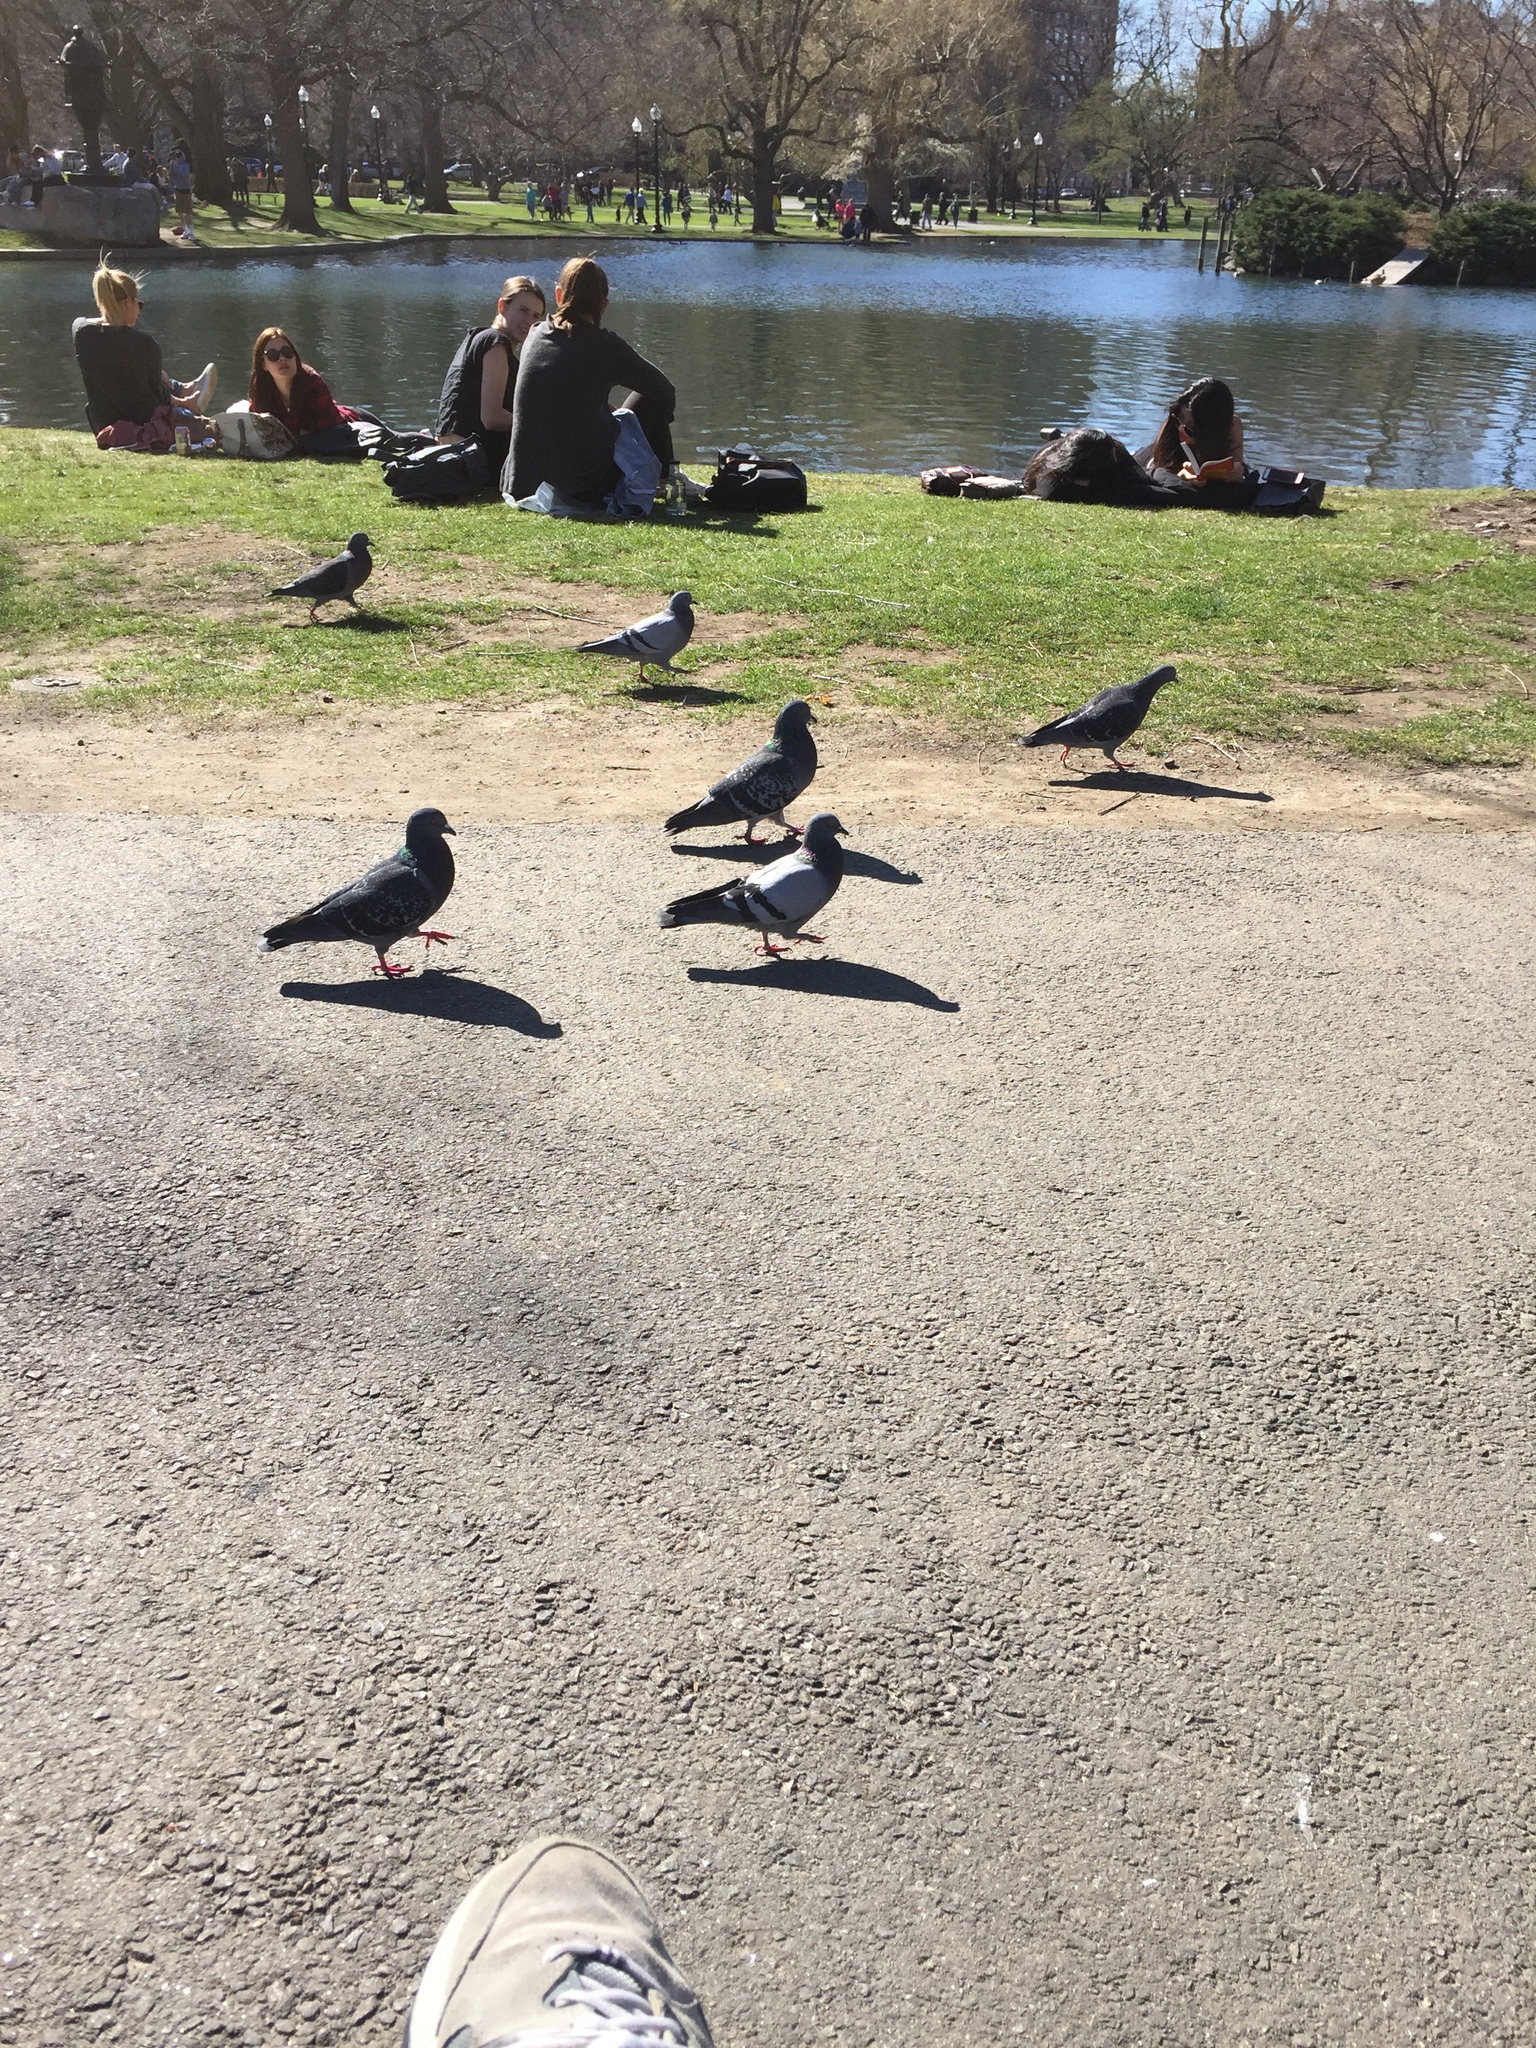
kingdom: Animalia
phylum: Chordata
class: Aves
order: Columbiformes
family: Columbidae
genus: Columba
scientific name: Columba livia
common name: Rock pigeon
